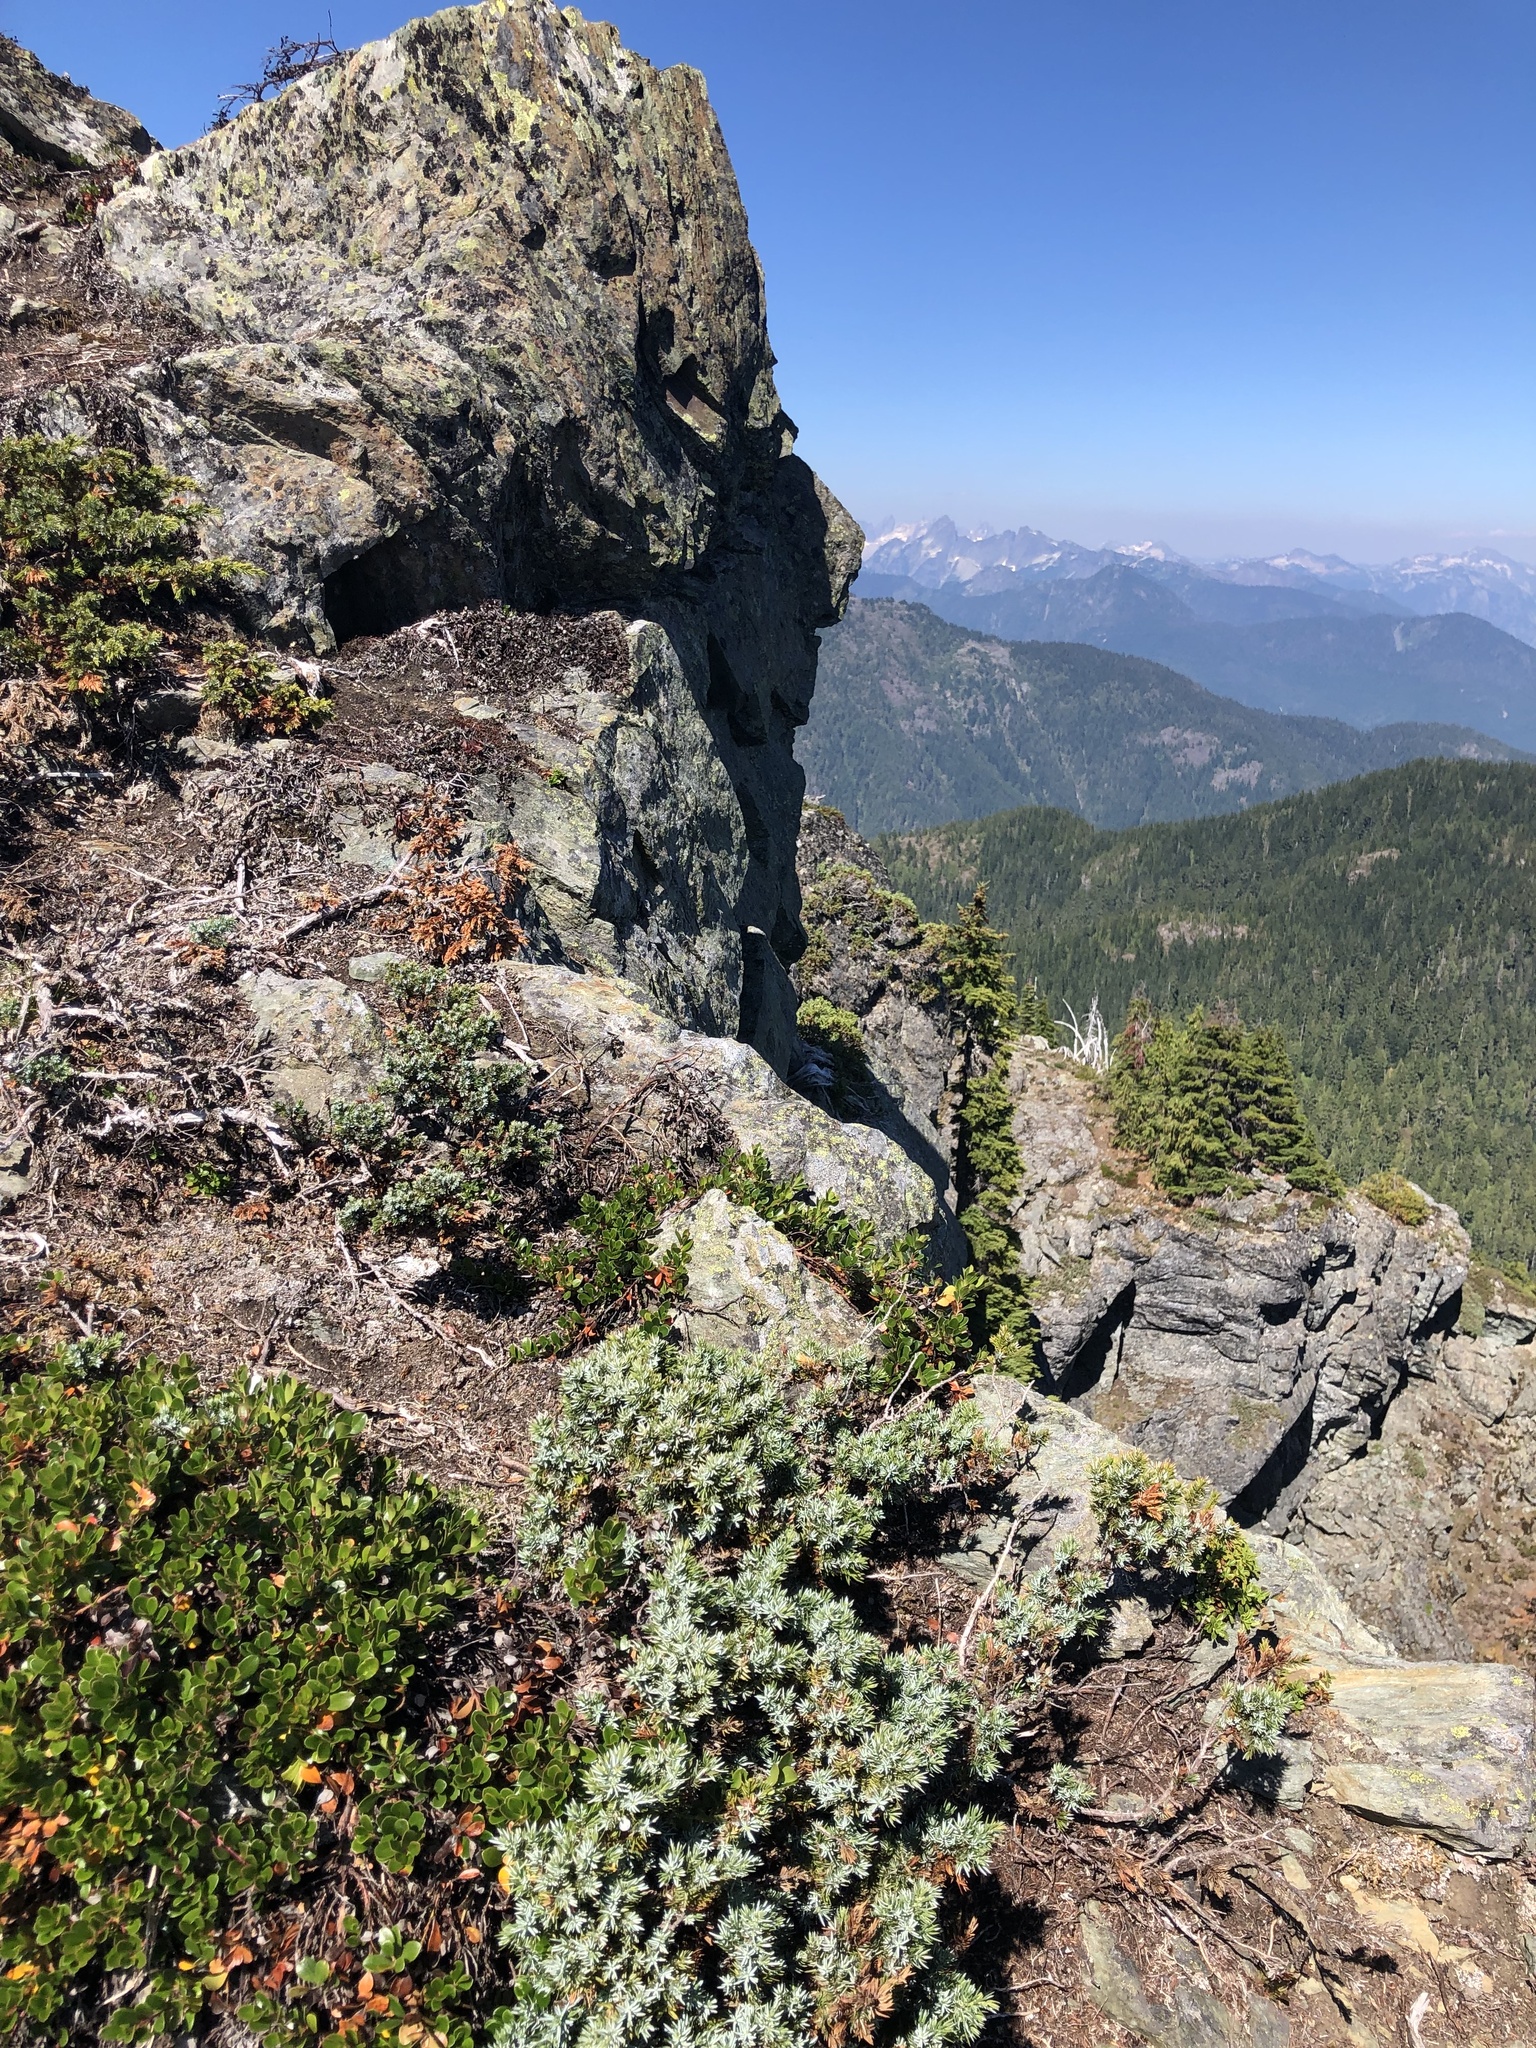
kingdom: Plantae
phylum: Tracheophyta
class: Pinopsida
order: Pinales
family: Cupressaceae
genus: Juniperus
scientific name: Juniperus communis
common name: Common juniper
